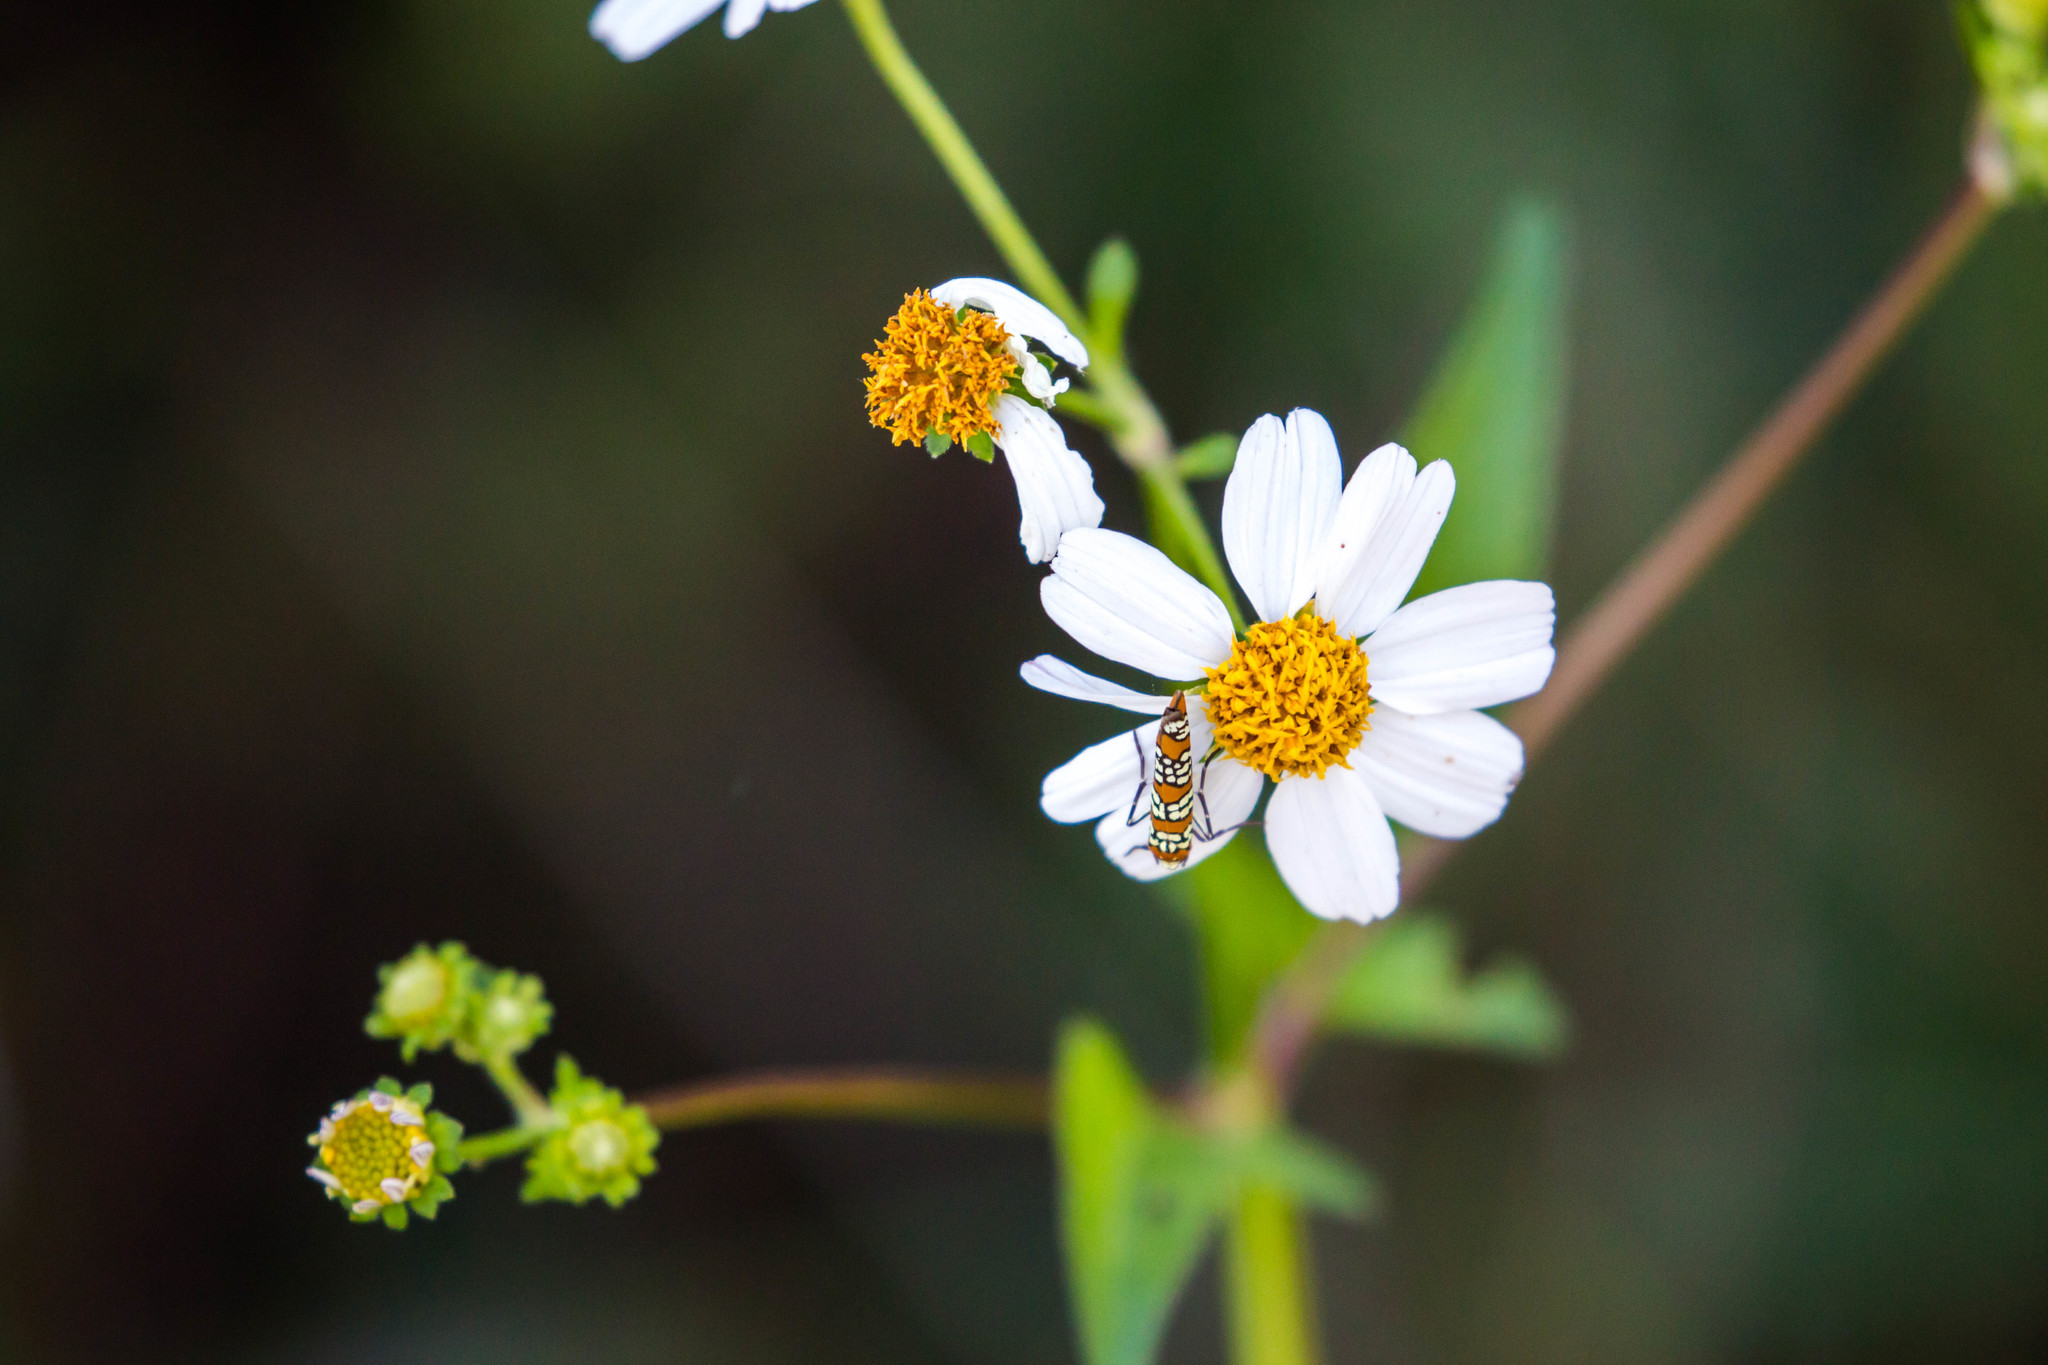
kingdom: Animalia
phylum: Arthropoda
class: Insecta
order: Lepidoptera
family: Attevidae
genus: Atteva
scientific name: Atteva punctella
